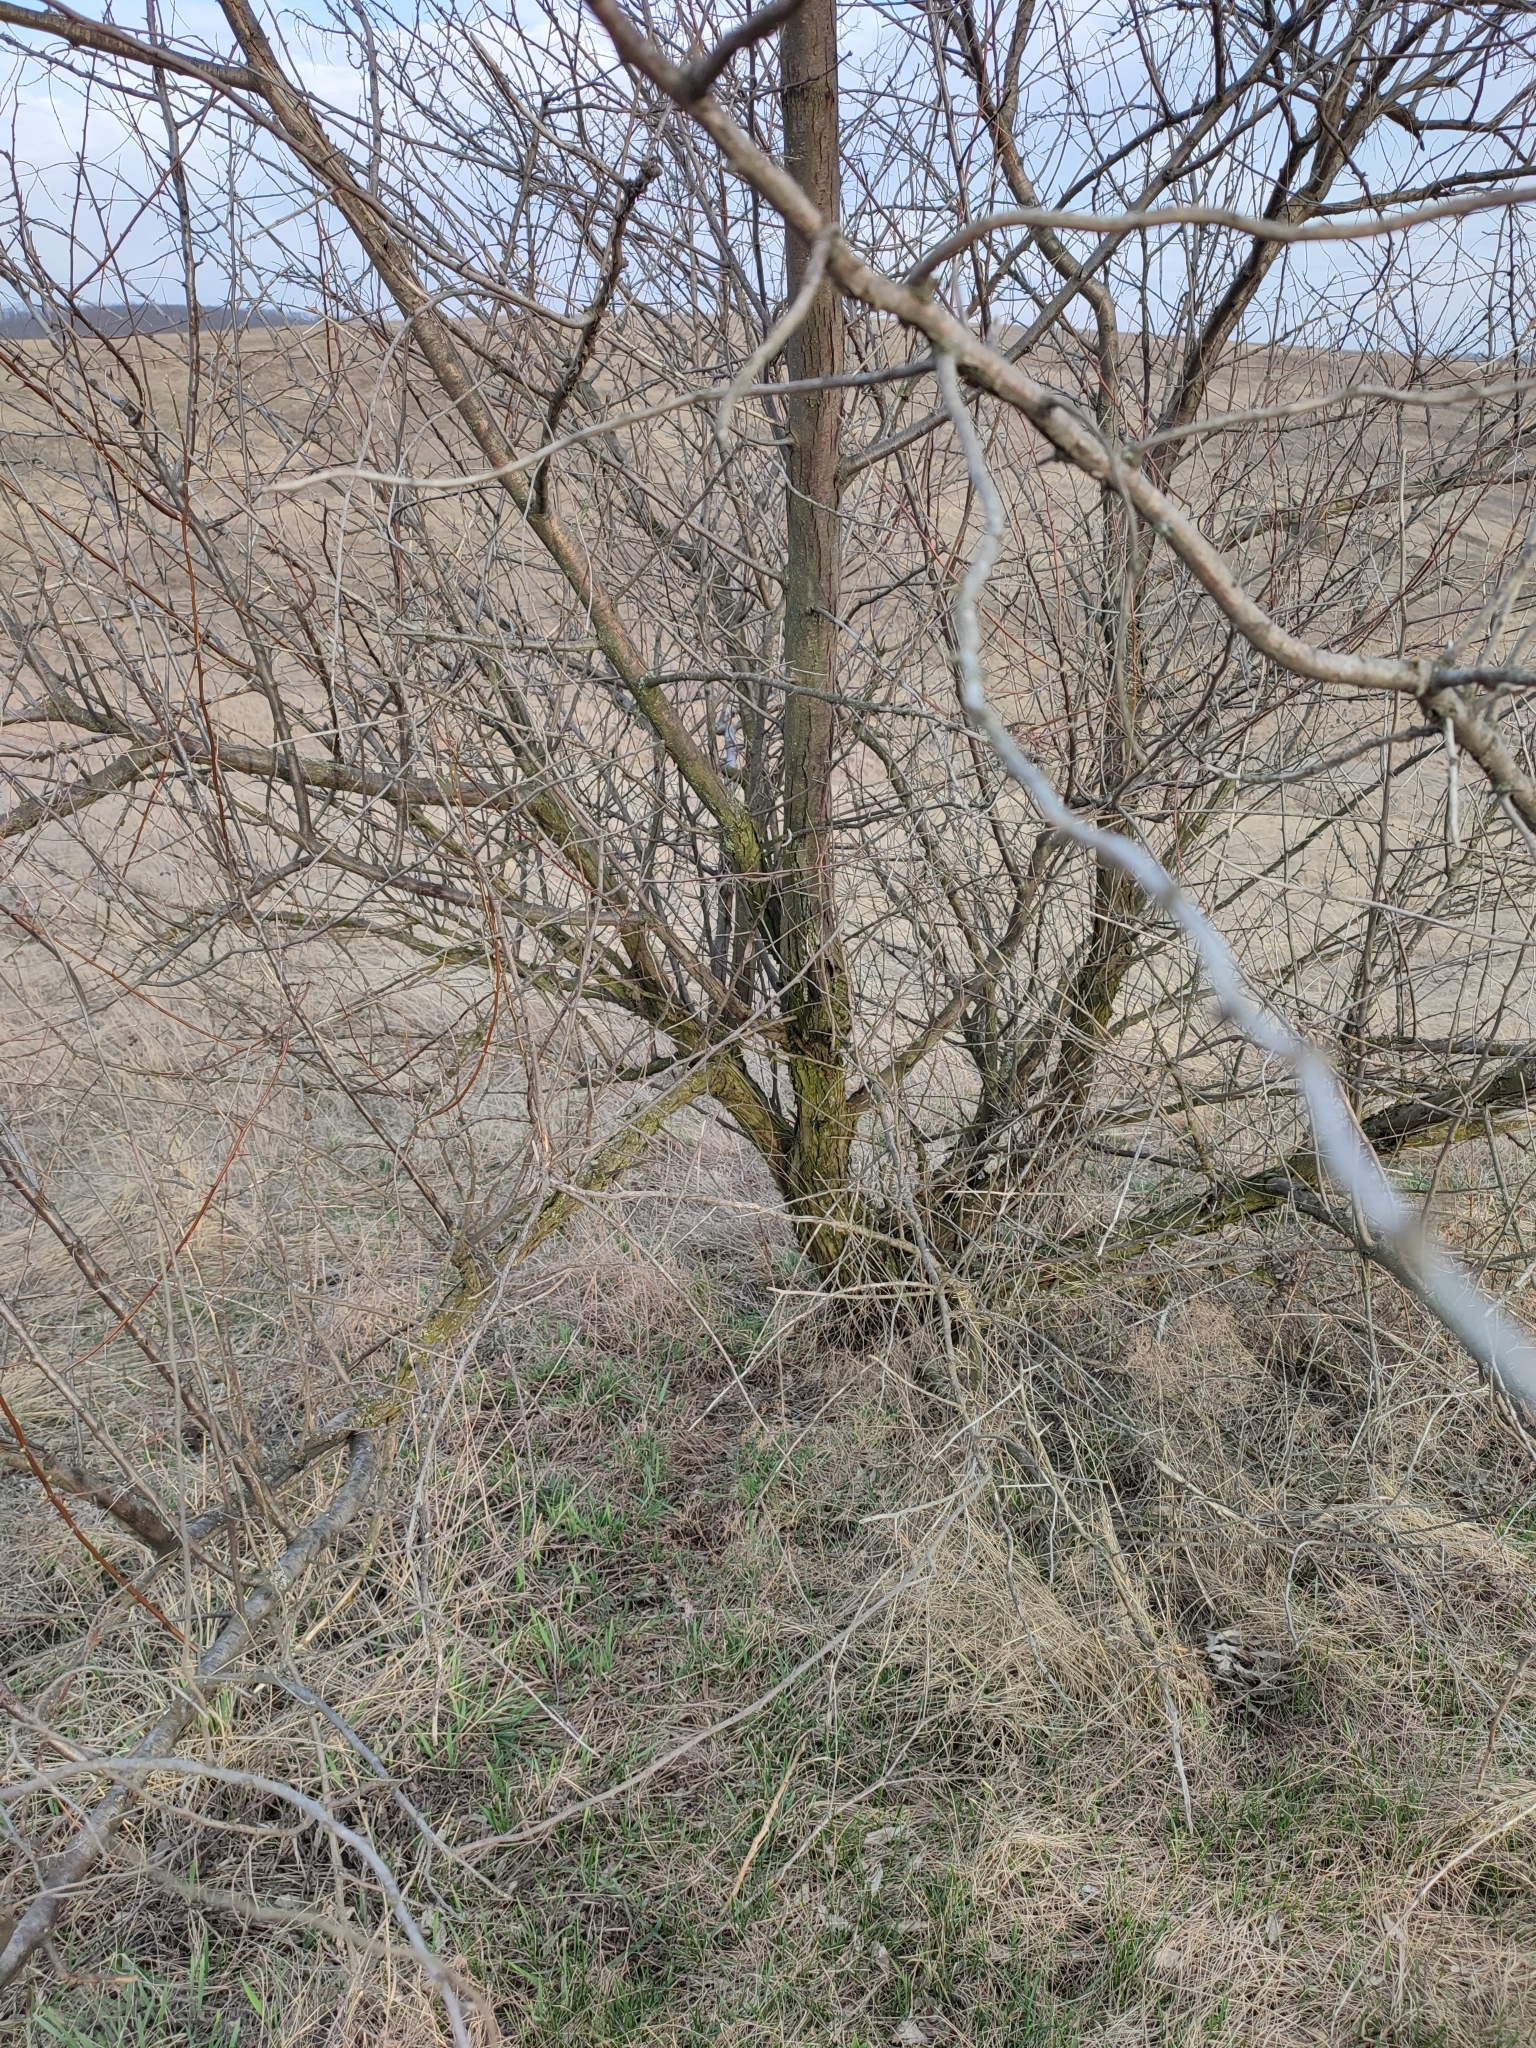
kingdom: Plantae
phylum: Tracheophyta
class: Magnoliopsida
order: Rosales
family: Elaeagnaceae
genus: Elaeagnus
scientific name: Elaeagnus angustifolia
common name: Russian olive
